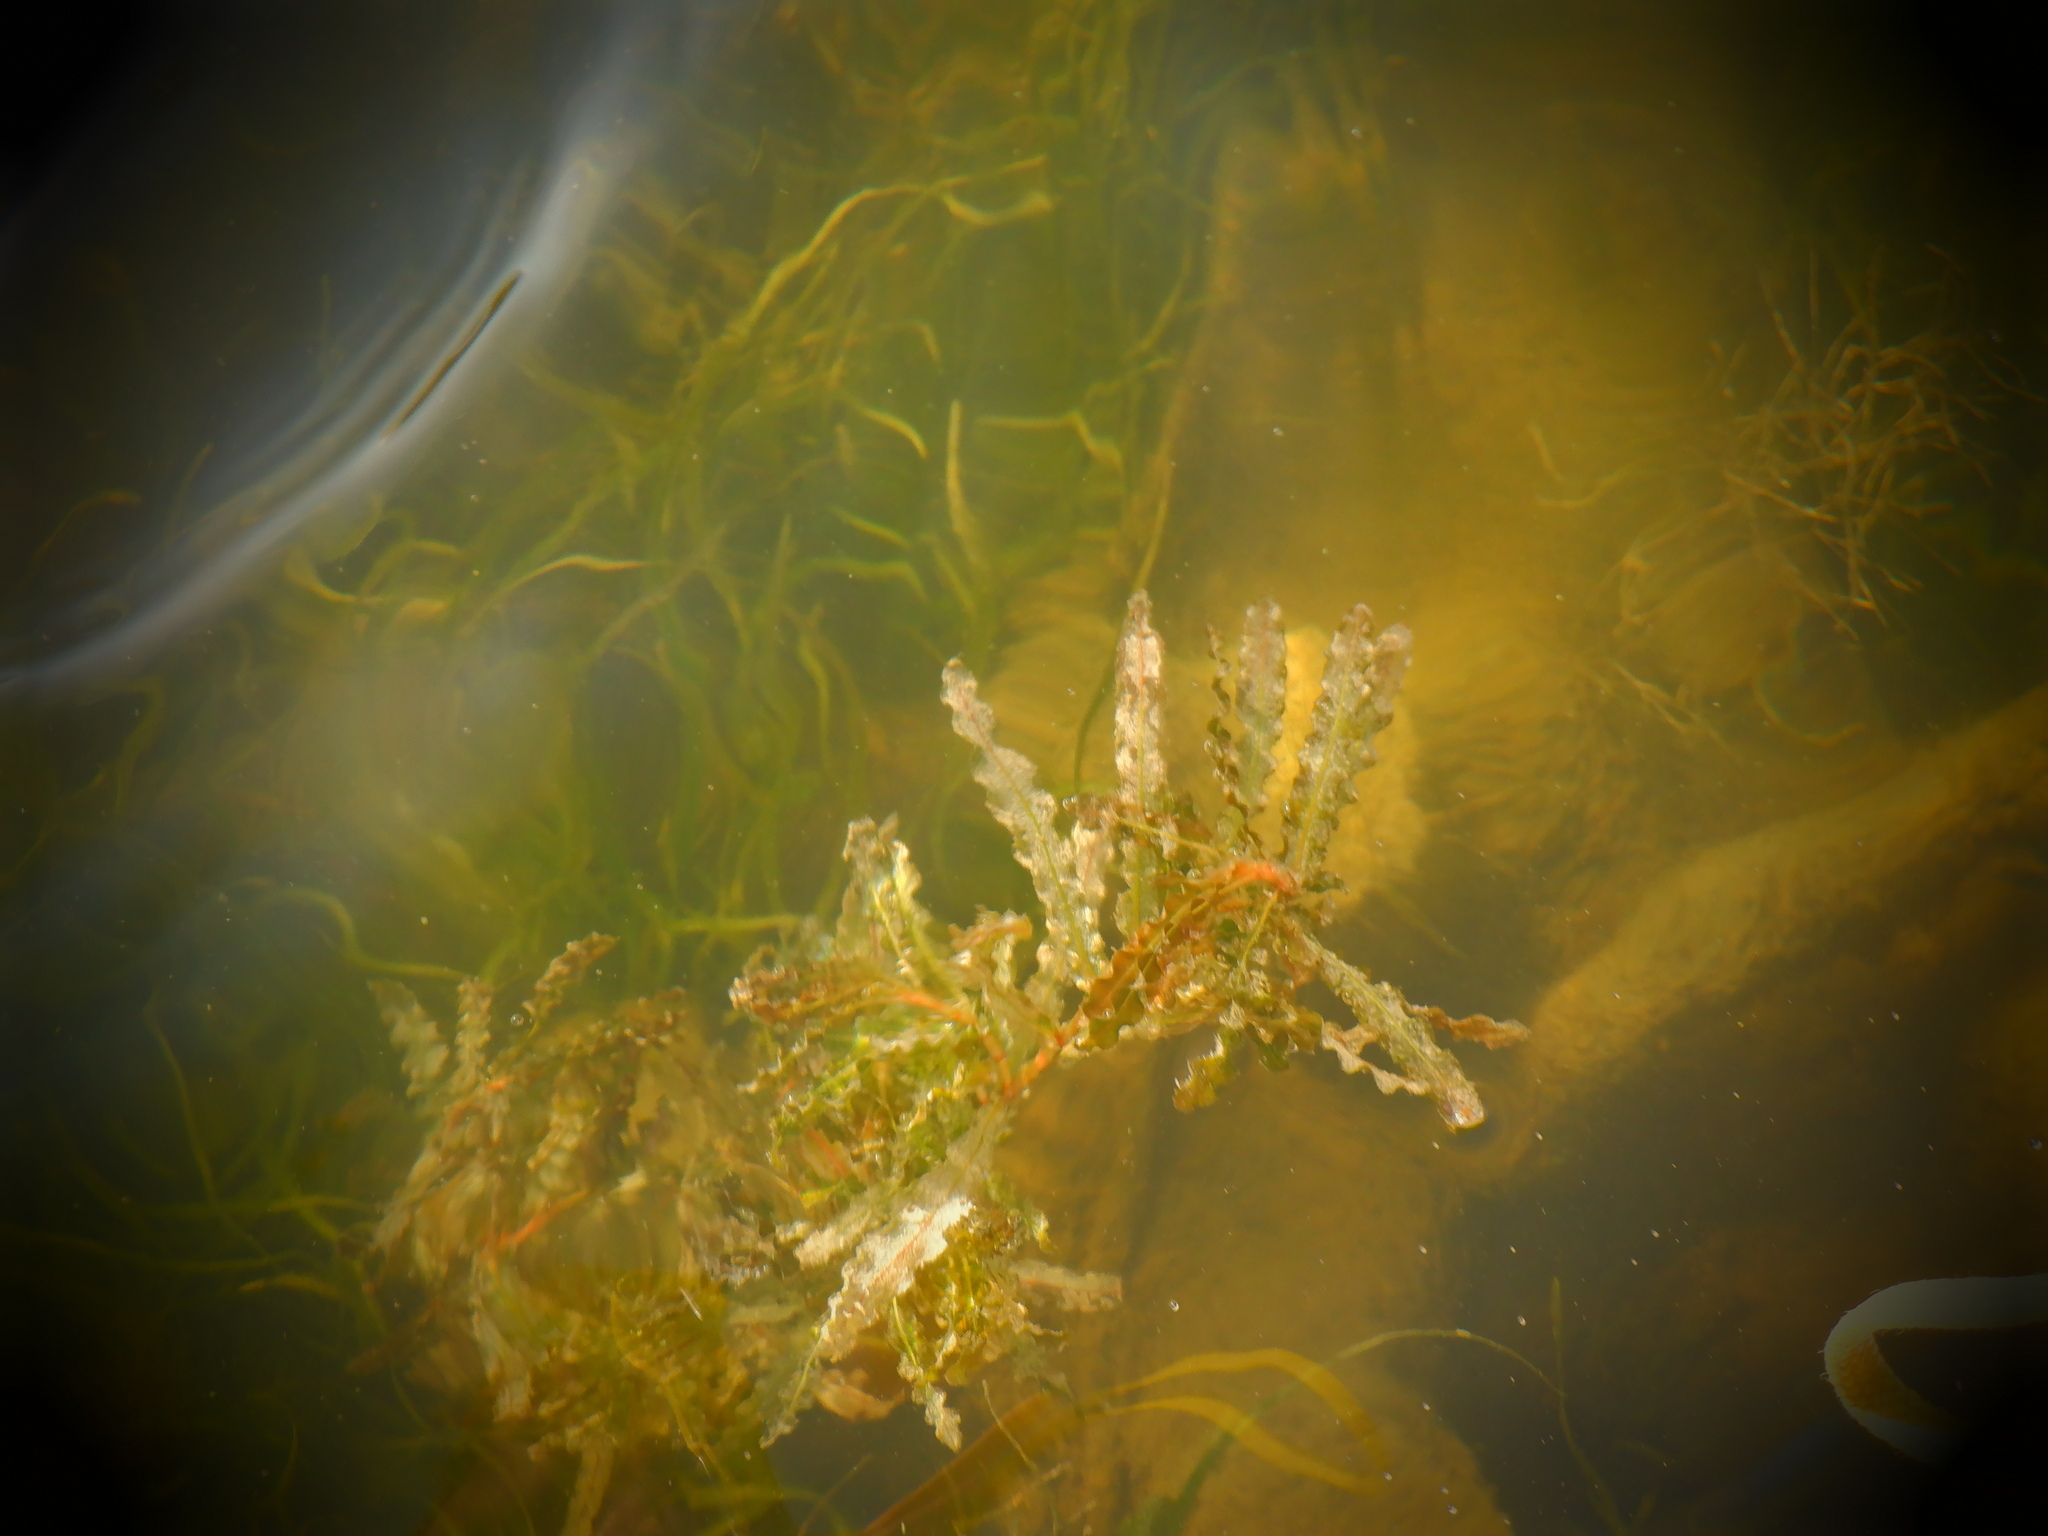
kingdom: Plantae
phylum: Tracheophyta
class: Liliopsida
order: Alismatales
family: Potamogetonaceae
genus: Potamogeton
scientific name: Potamogeton crispus
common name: Curled pondweed
